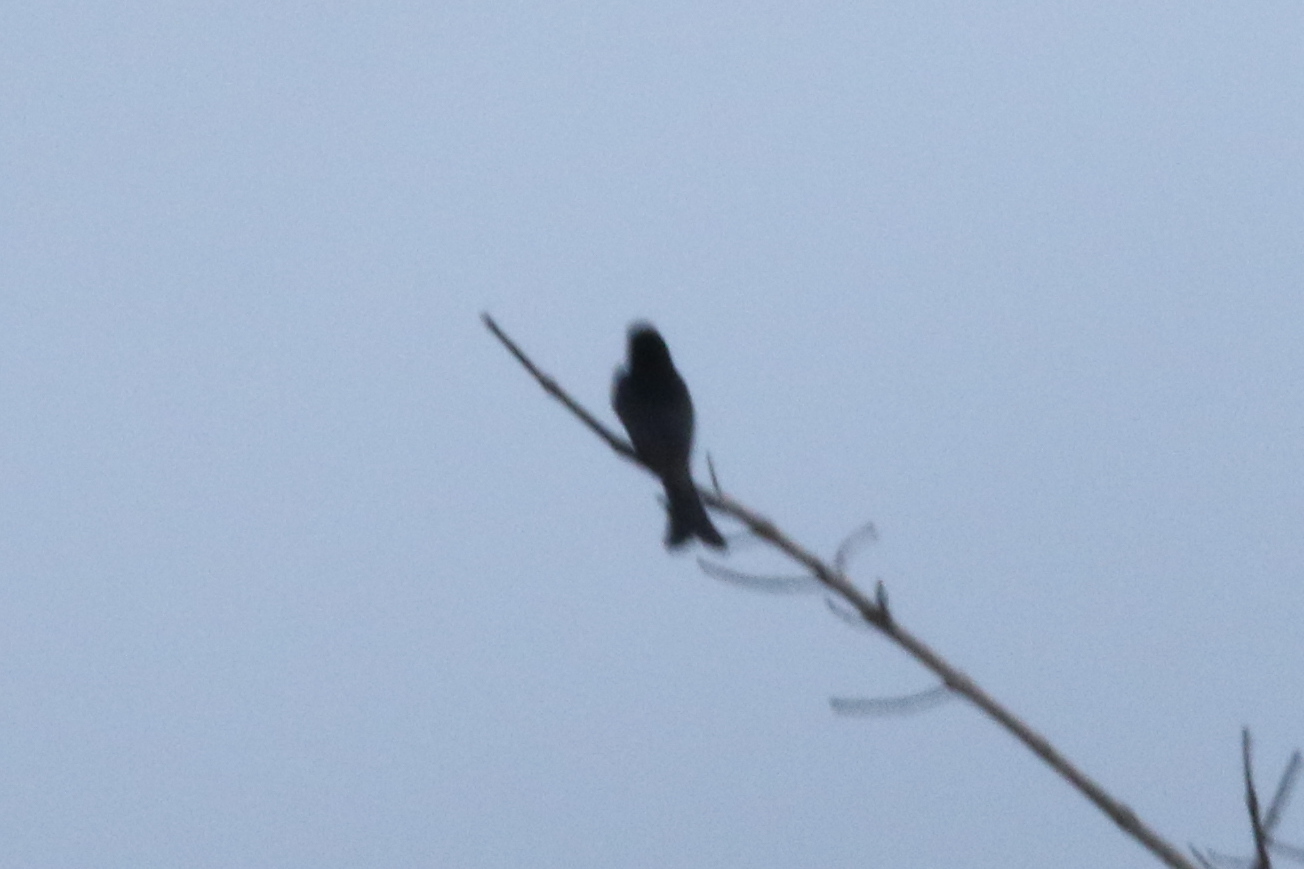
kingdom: Animalia
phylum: Chordata
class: Aves
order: Passeriformes
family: Dicruridae
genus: Dicrurus
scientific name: Dicrurus bracteatus
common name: Spangled drongo
